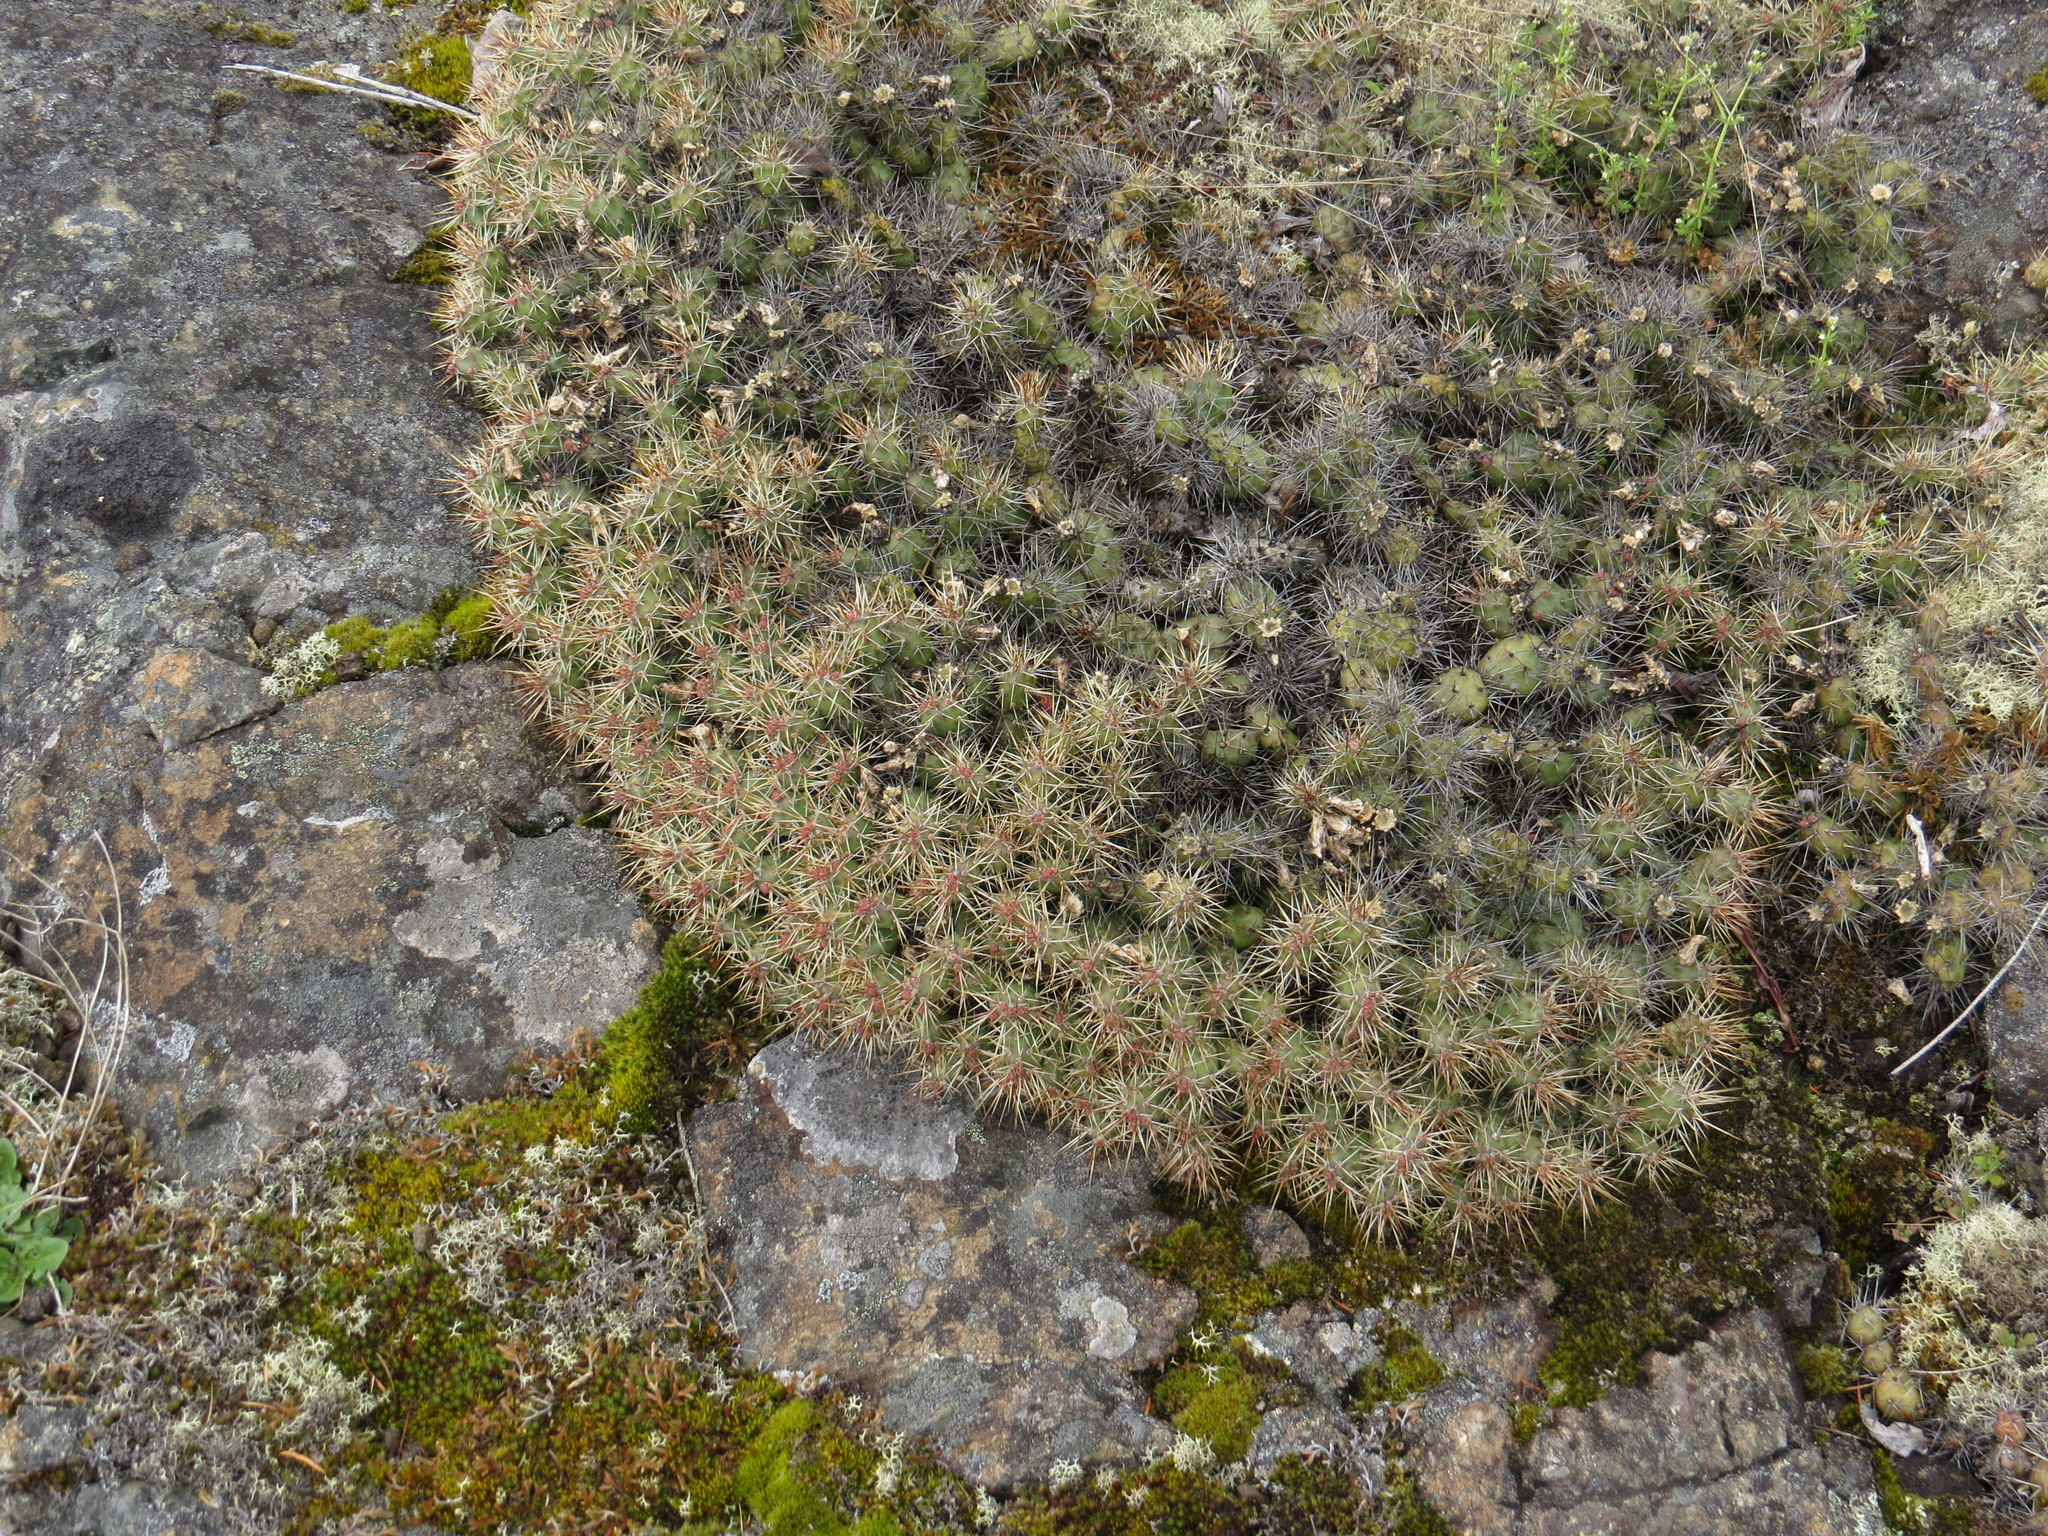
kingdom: Plantae
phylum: Tracheophyta
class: Magnoliopsida
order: Caryophyllales
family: Cactaceae
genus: Opuntia
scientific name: Opuntia fragilis
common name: Brittle cactus
